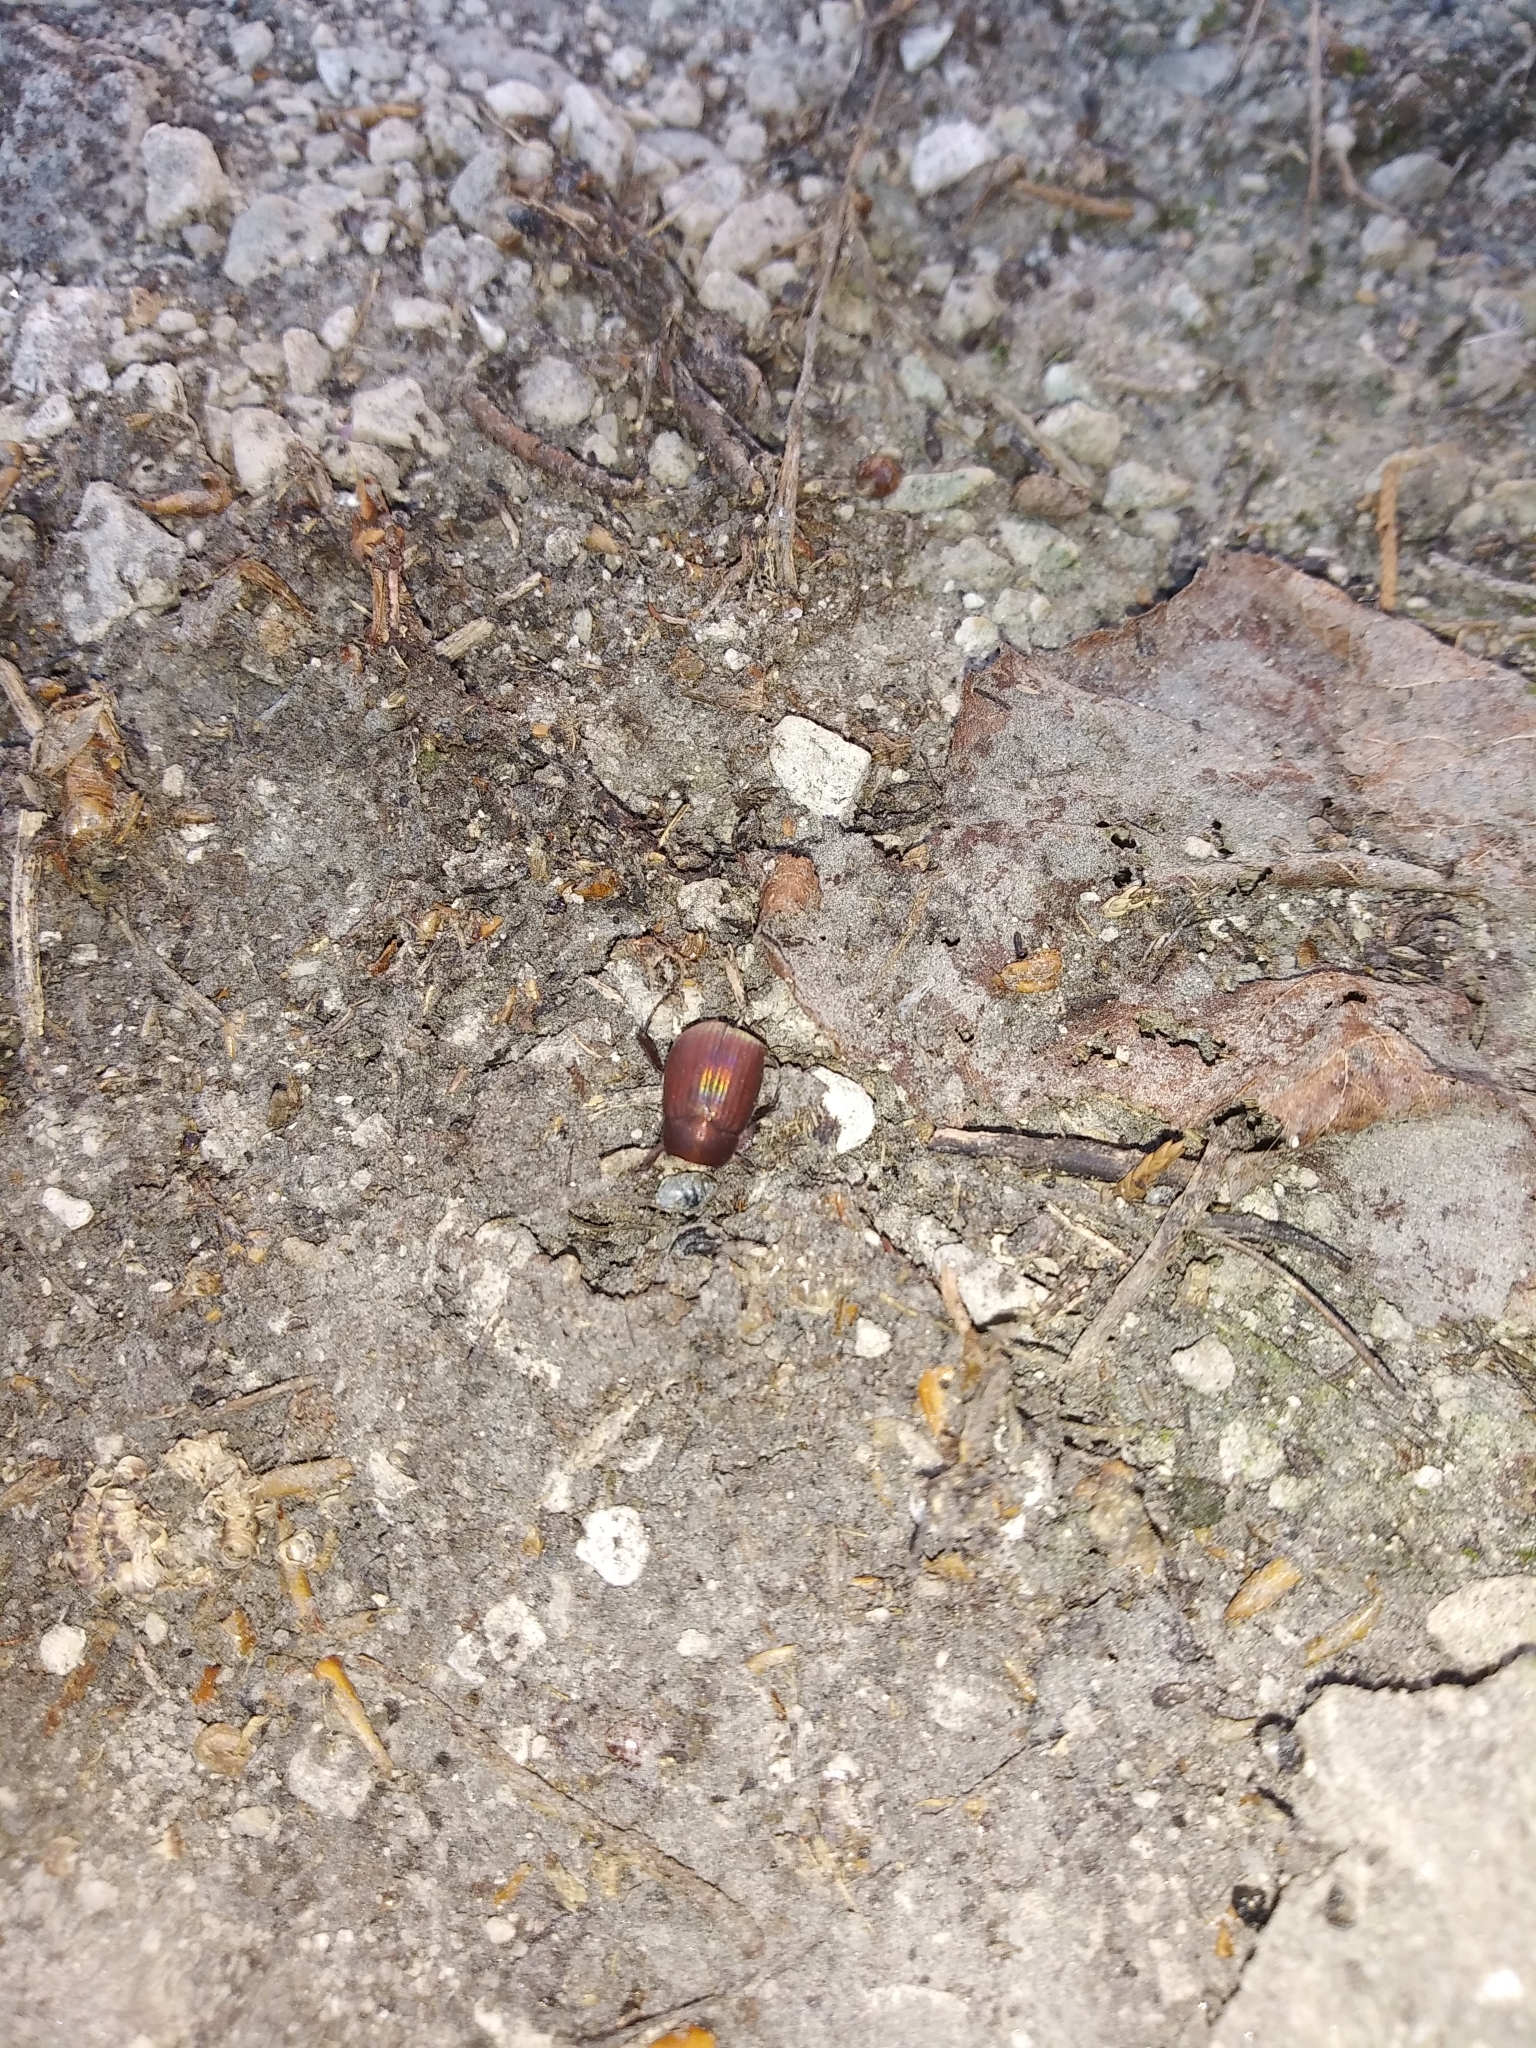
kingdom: Animalia
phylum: Arthropoda
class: Insecta
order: Coleoptera
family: Scarabaeidae
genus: Maladera
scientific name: Maladera formosae
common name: Asiatic garden beetle
